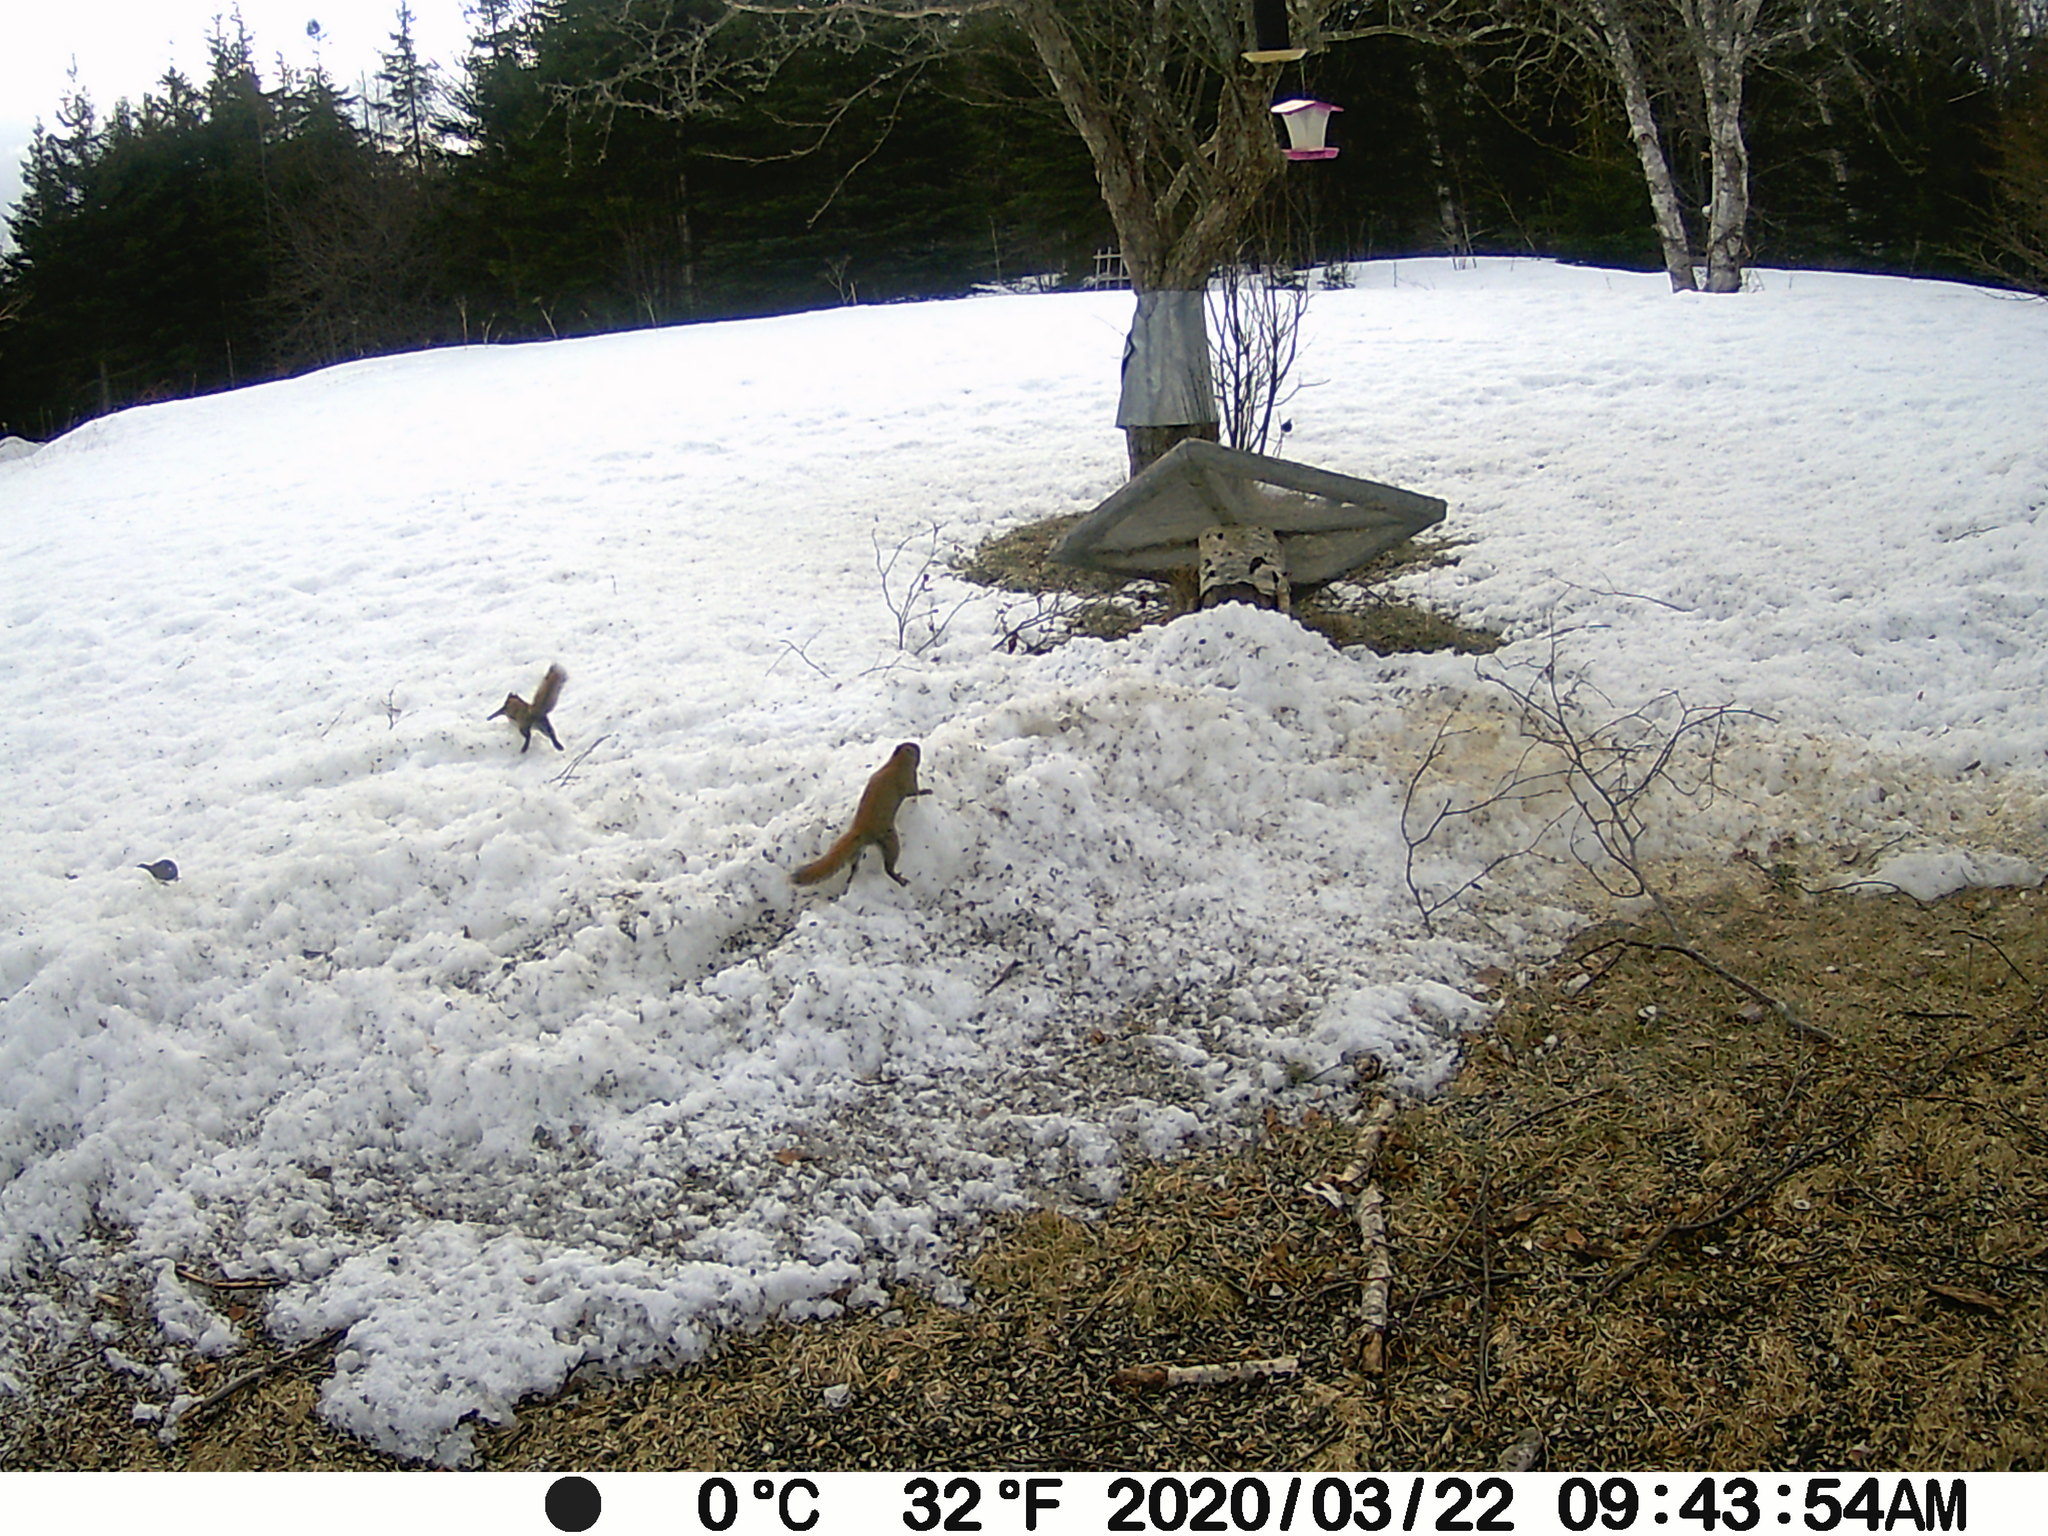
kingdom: Animalia
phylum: Chordata
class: Mammalia
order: Rodentia
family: Sciuridae
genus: Tamiasciurus
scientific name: Tamiasciurus hudsonicus
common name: Red squirrel
